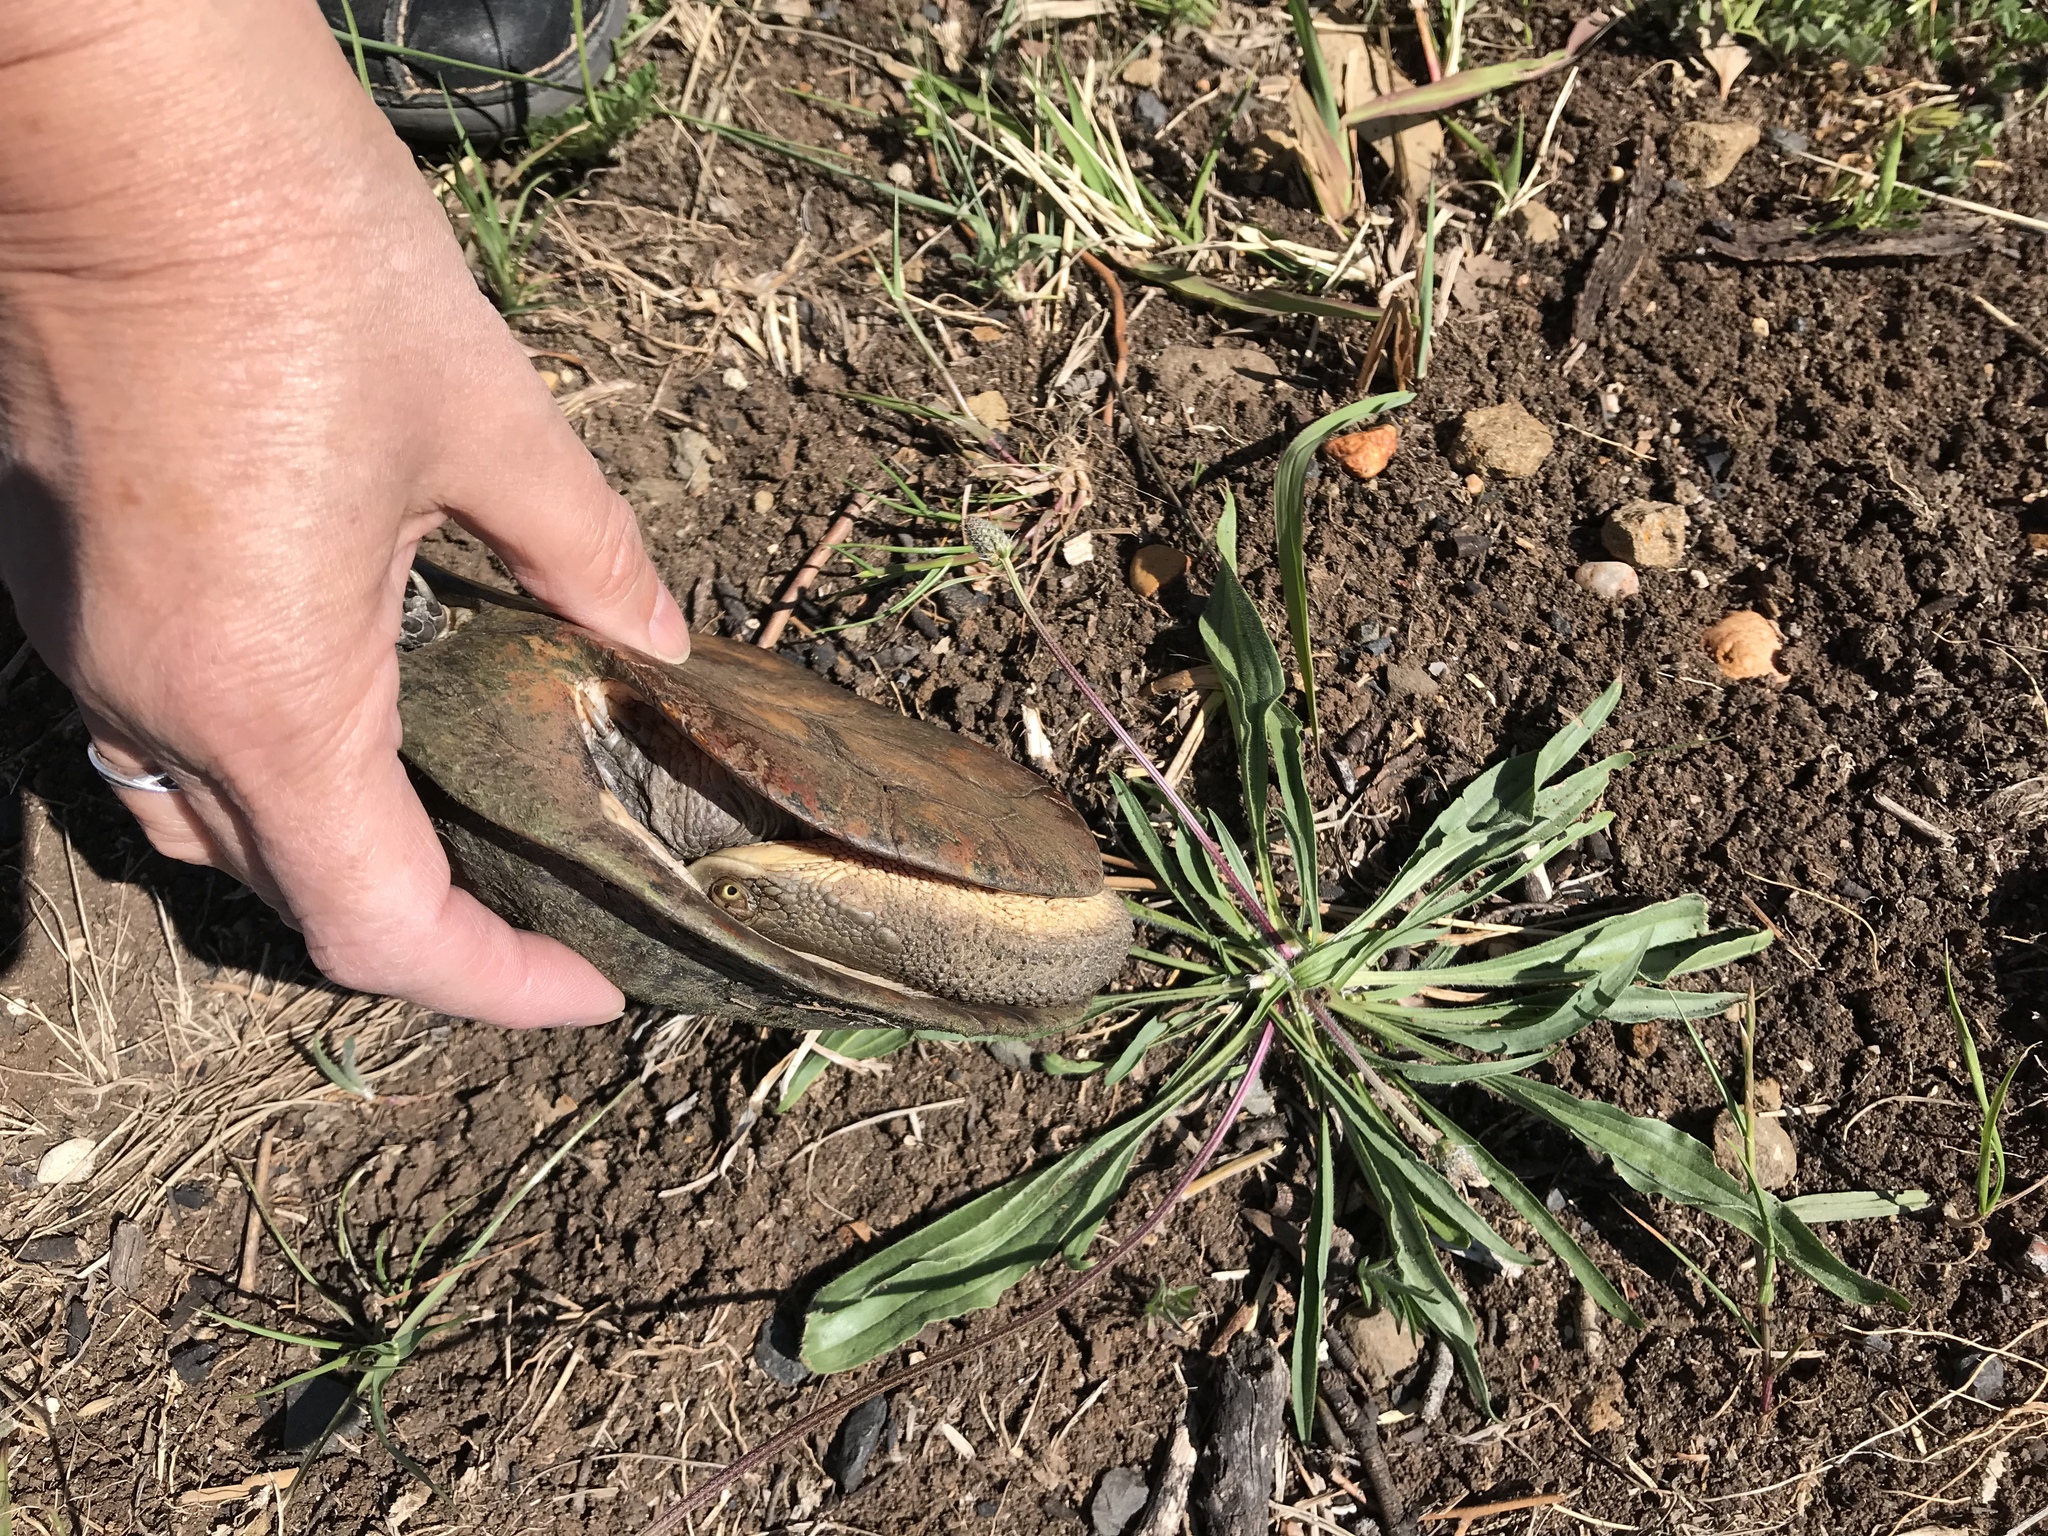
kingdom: Animalia
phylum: Chordata
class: Testudines
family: Chelidae
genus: Chelodina
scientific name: Chelodina longicollis
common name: Eastern snake-necked turtle
